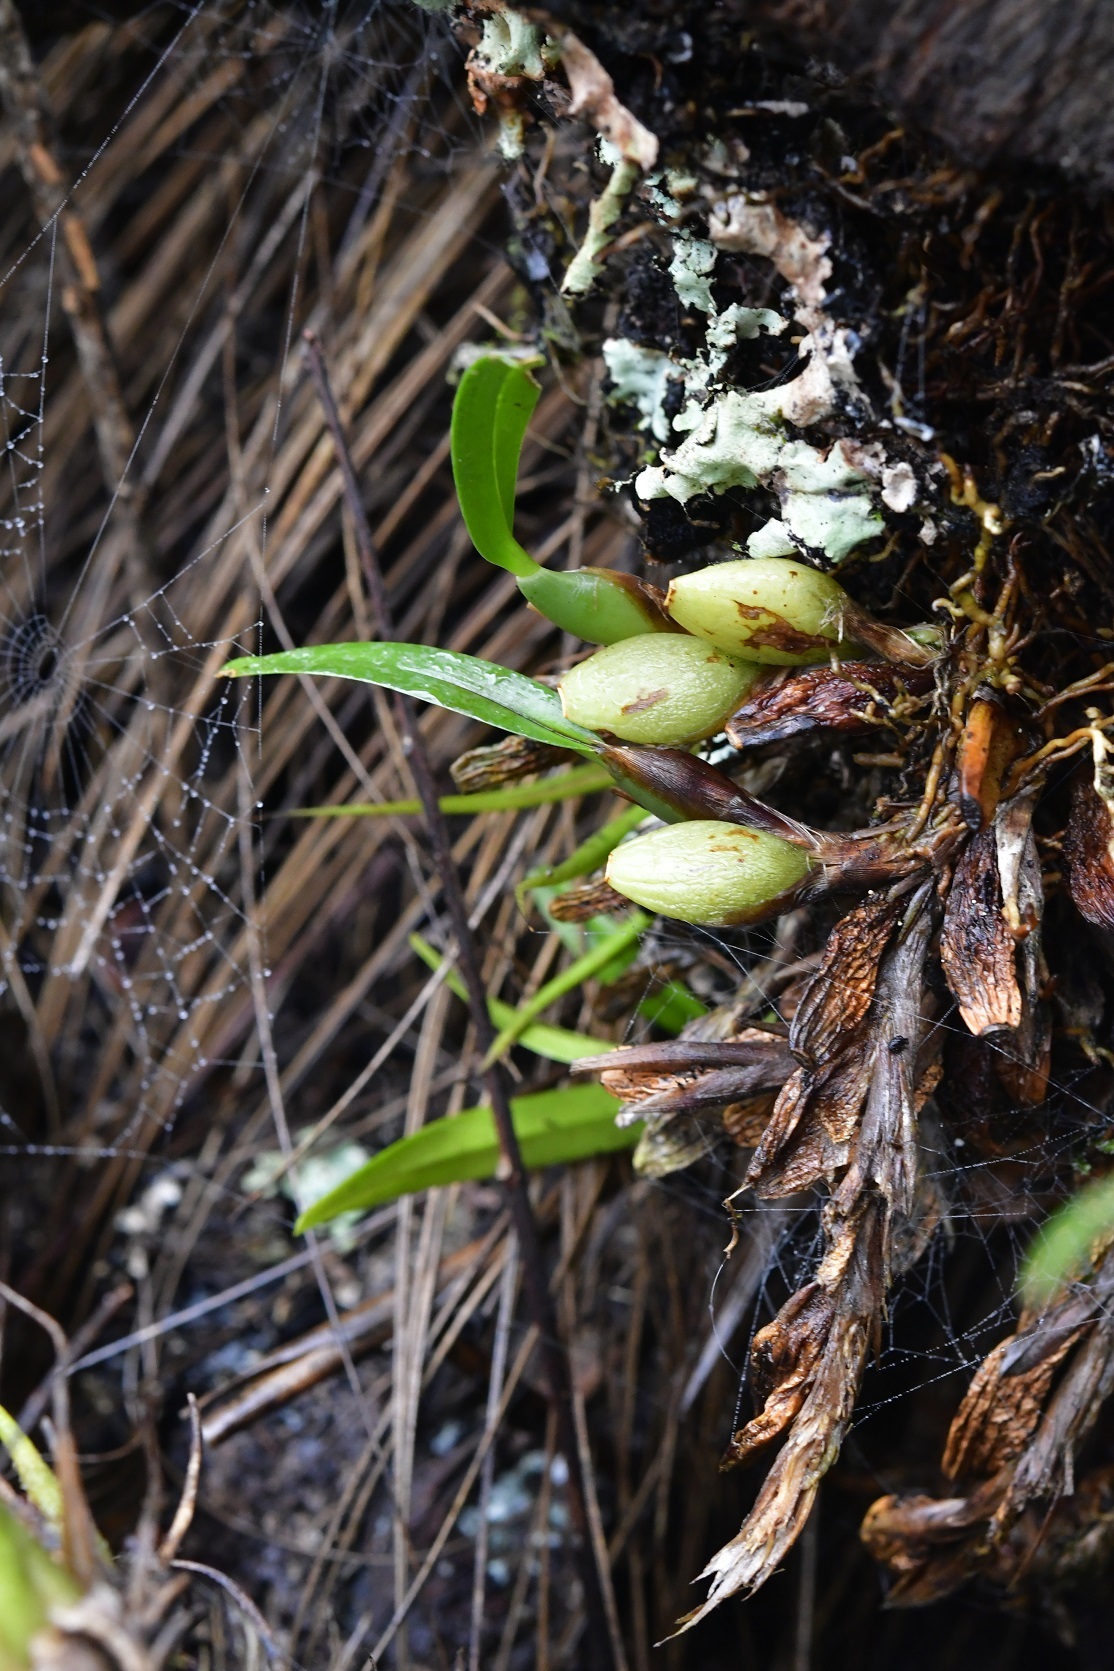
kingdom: Plantae
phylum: Tracheophyta
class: Liliopsida
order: Asparagales
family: Orchidaceae
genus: Maxillaria
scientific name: Maxillaria densa
